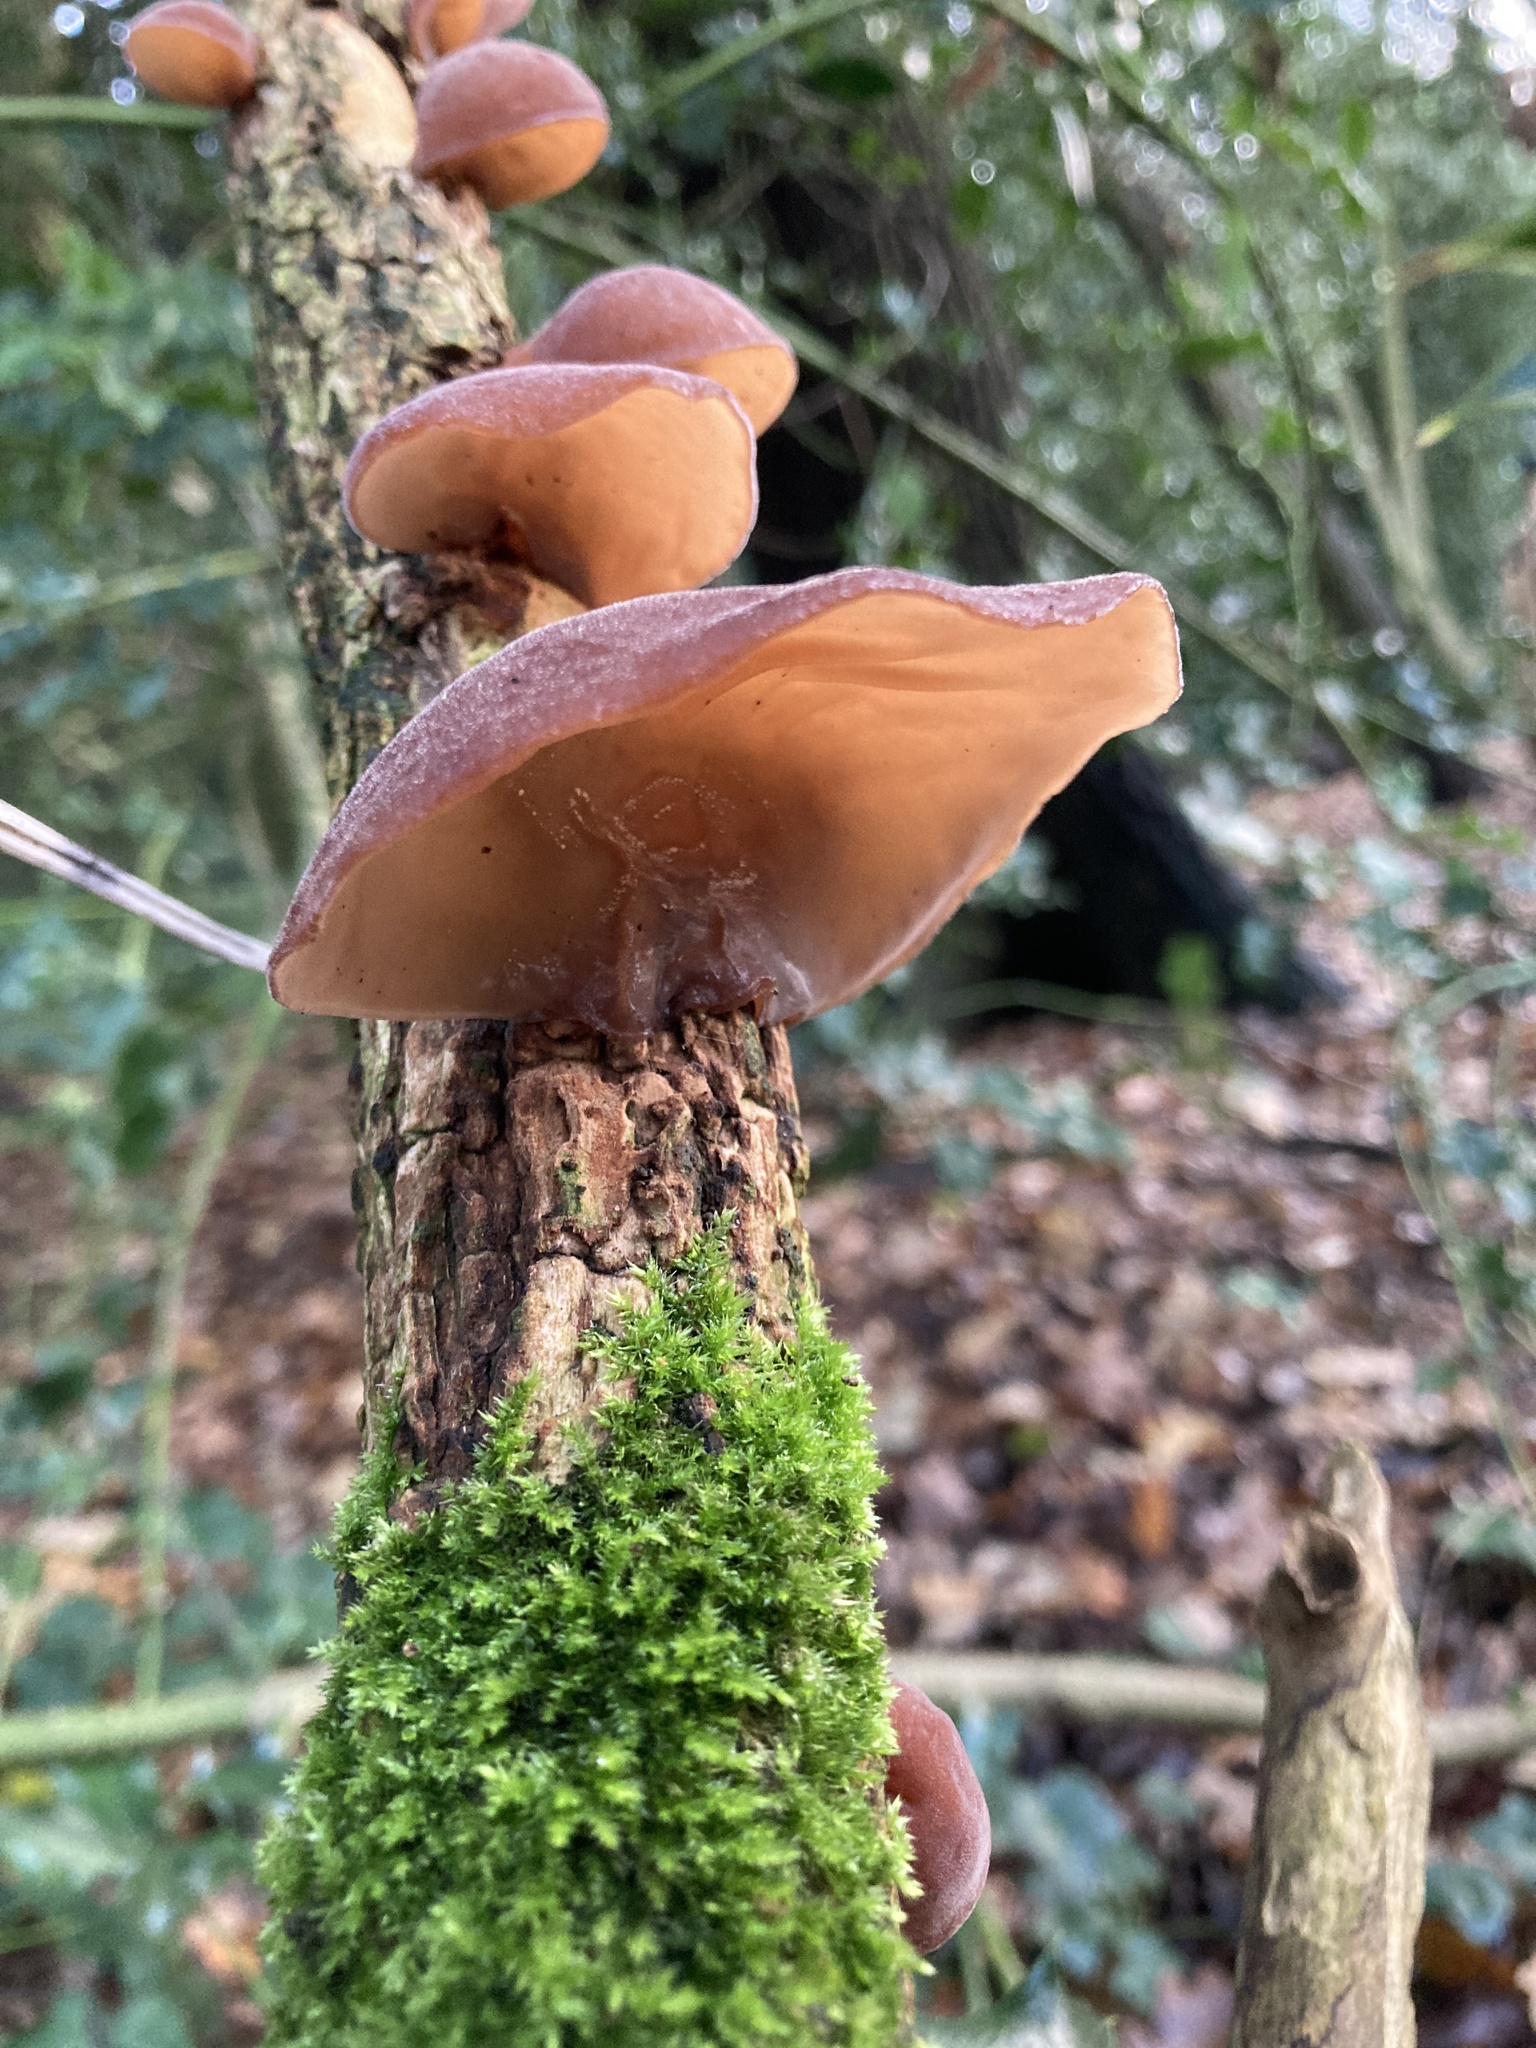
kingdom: Fungi
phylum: Basidiomycota
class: Agaricomycetes
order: Auriculariales
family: Auriculariaceae
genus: Auricularia
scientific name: Auricularia auricula-judae
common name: Jelly ear
